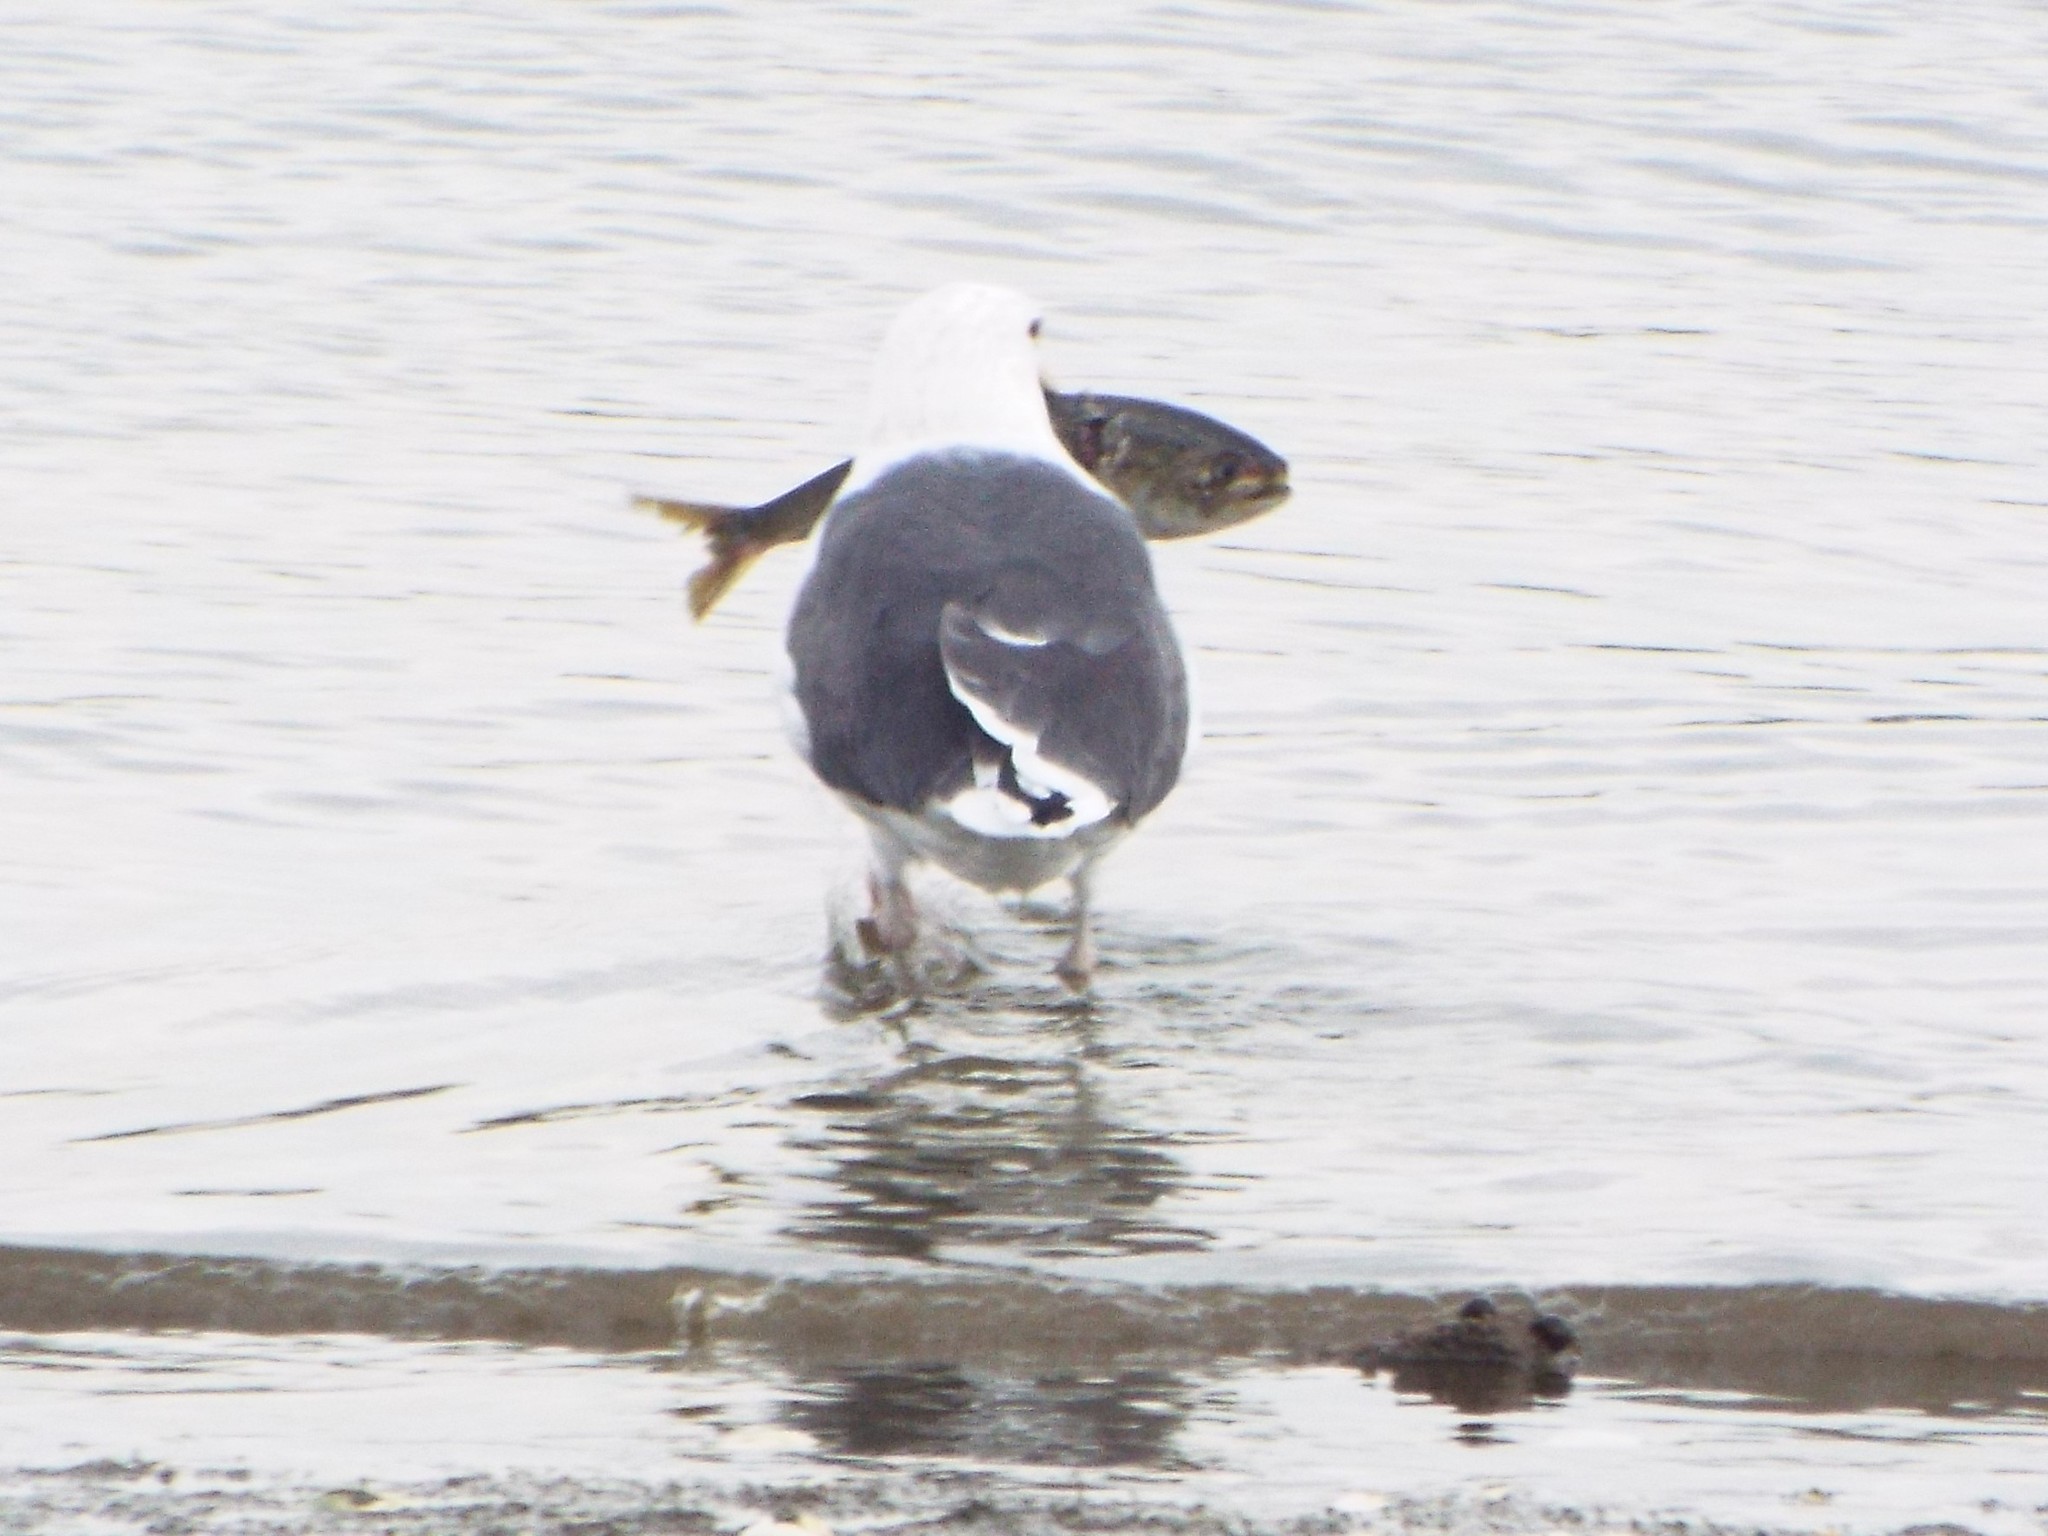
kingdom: Animalia
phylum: Chordata
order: Clupeiformes
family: Clupeidae
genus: Brevoortia
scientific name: Brevoortia tyrannus
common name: Atlantic menhaden
